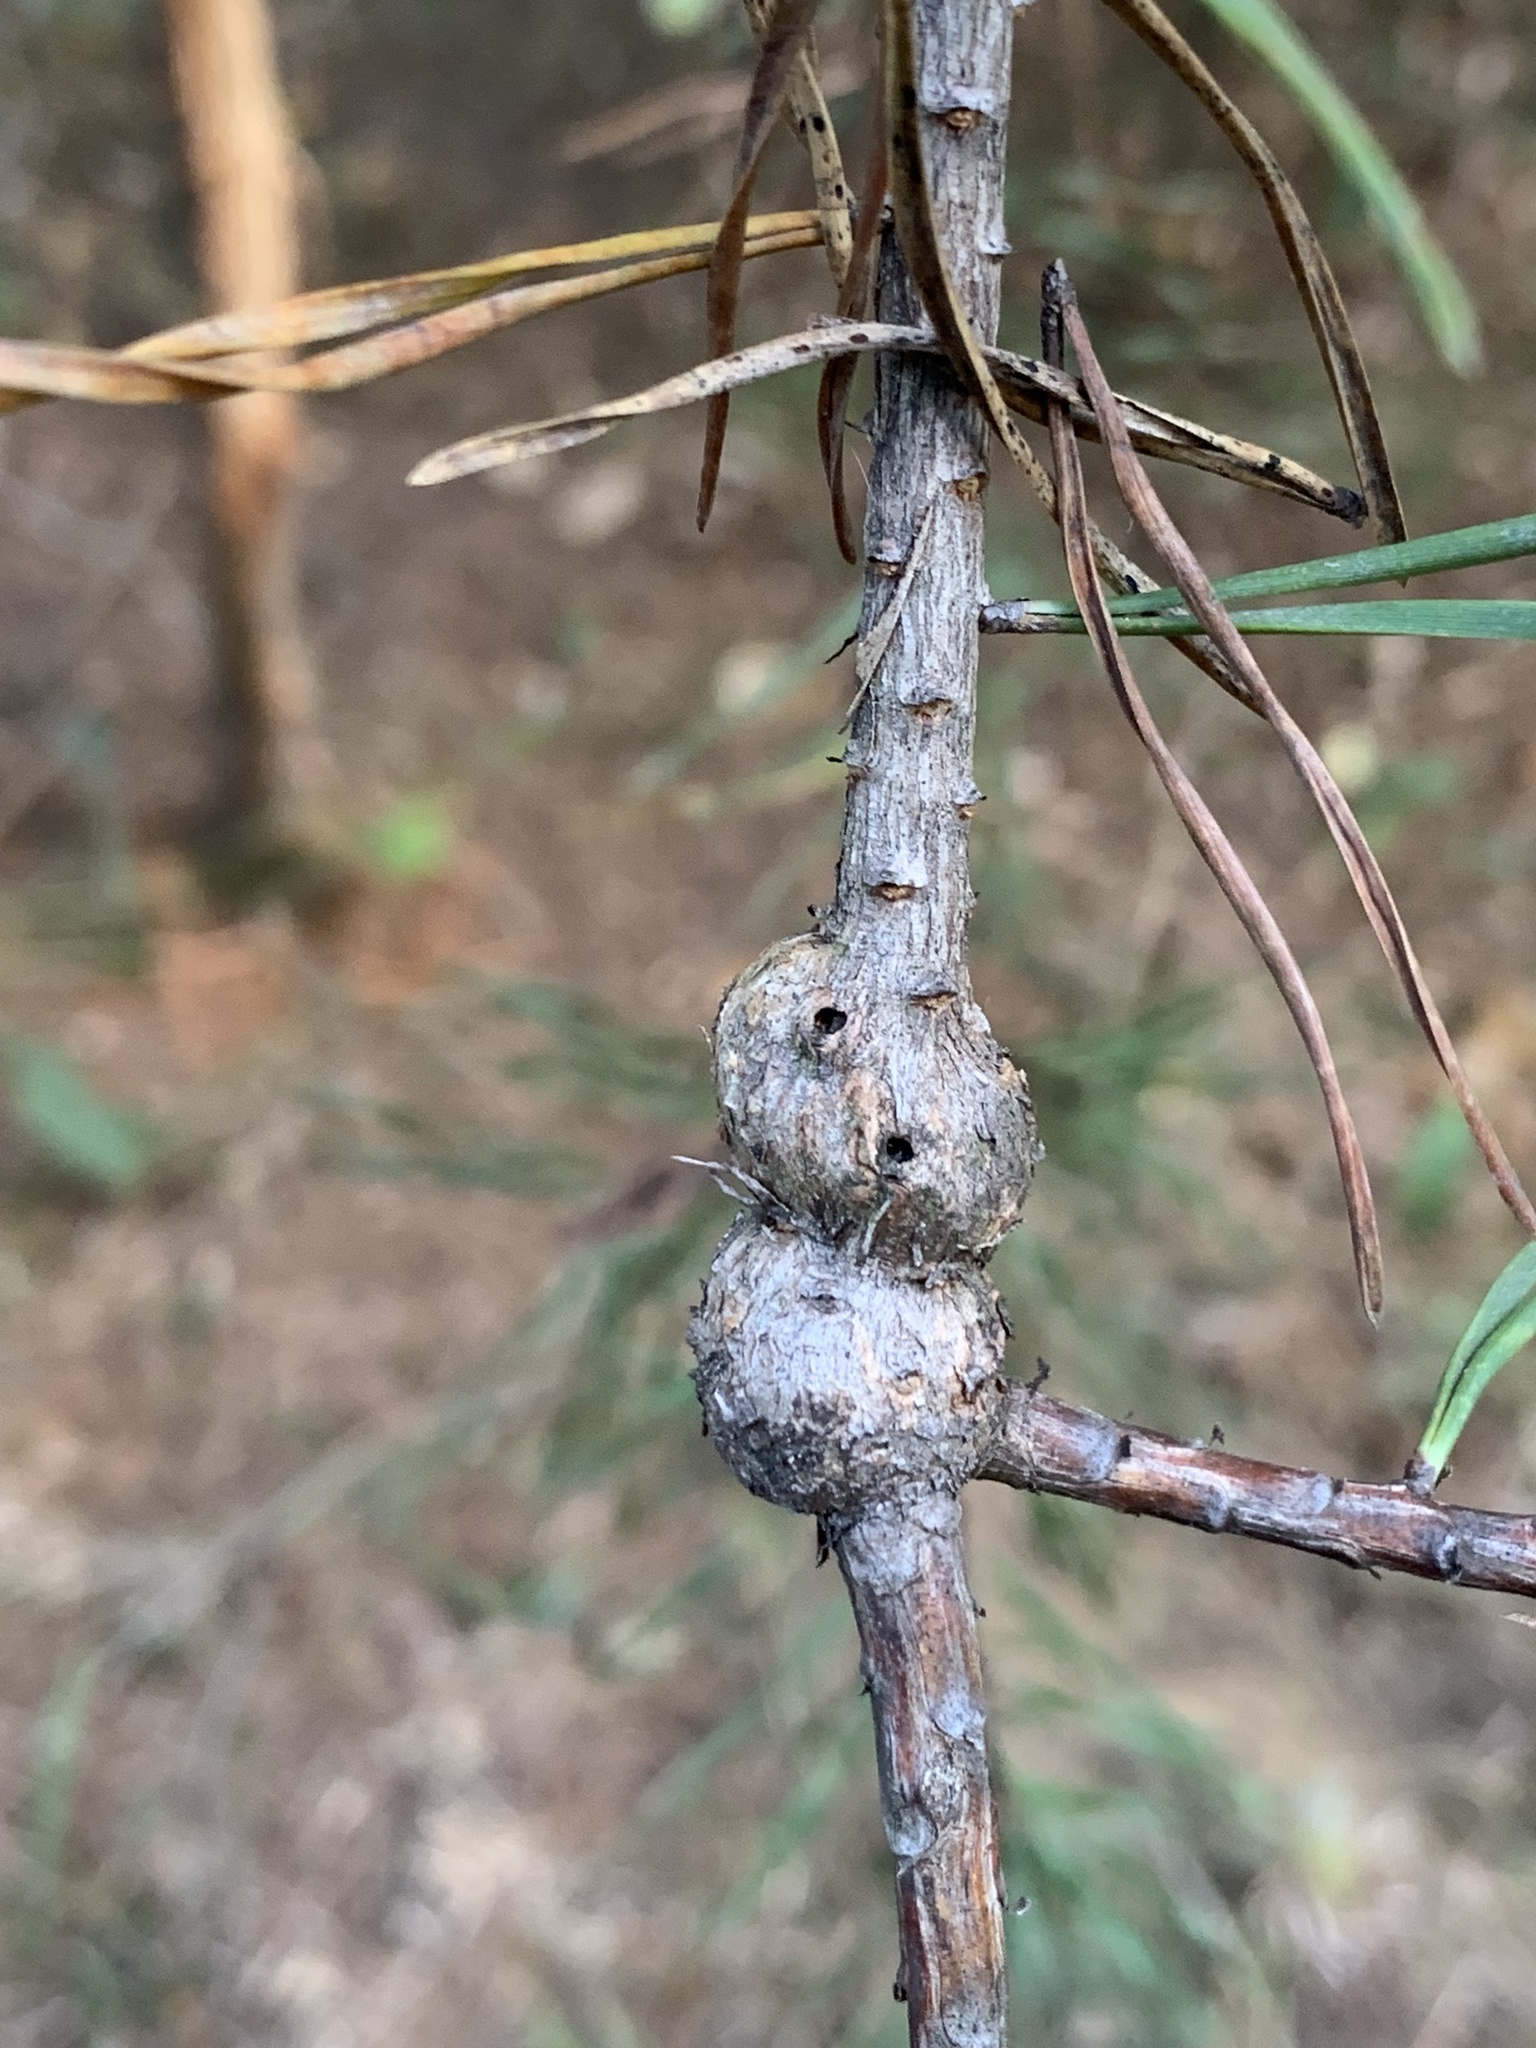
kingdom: Animalia
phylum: Arthropoda
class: Insecta
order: Coleoptera
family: Brentidae
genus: Podapion
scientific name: Podapion gallicola
